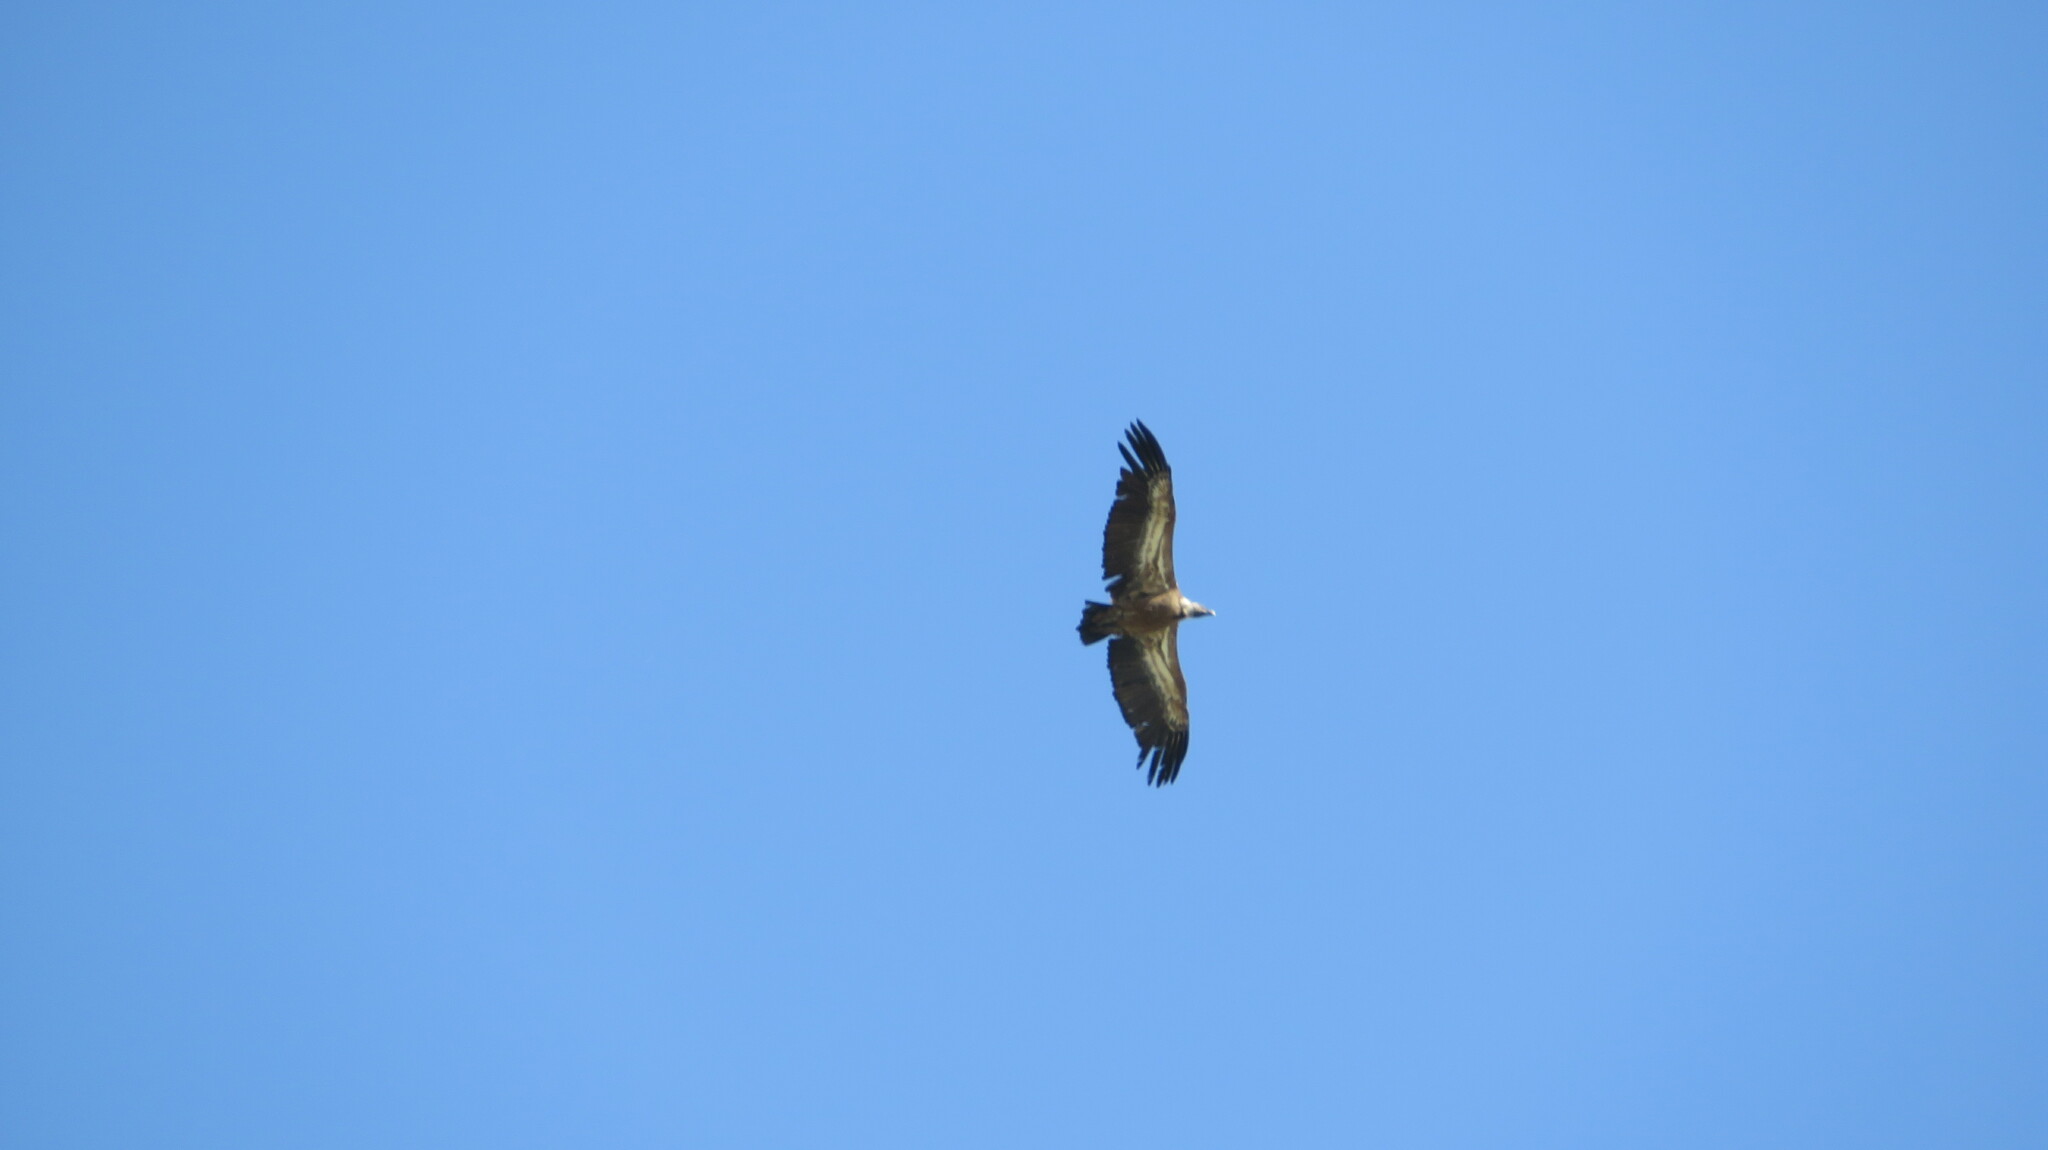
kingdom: Animalia
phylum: Chordata
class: Aves
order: Accipitriformes
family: Accipitridae
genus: Gyps
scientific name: Gyps fulvus
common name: Griffon vulture
